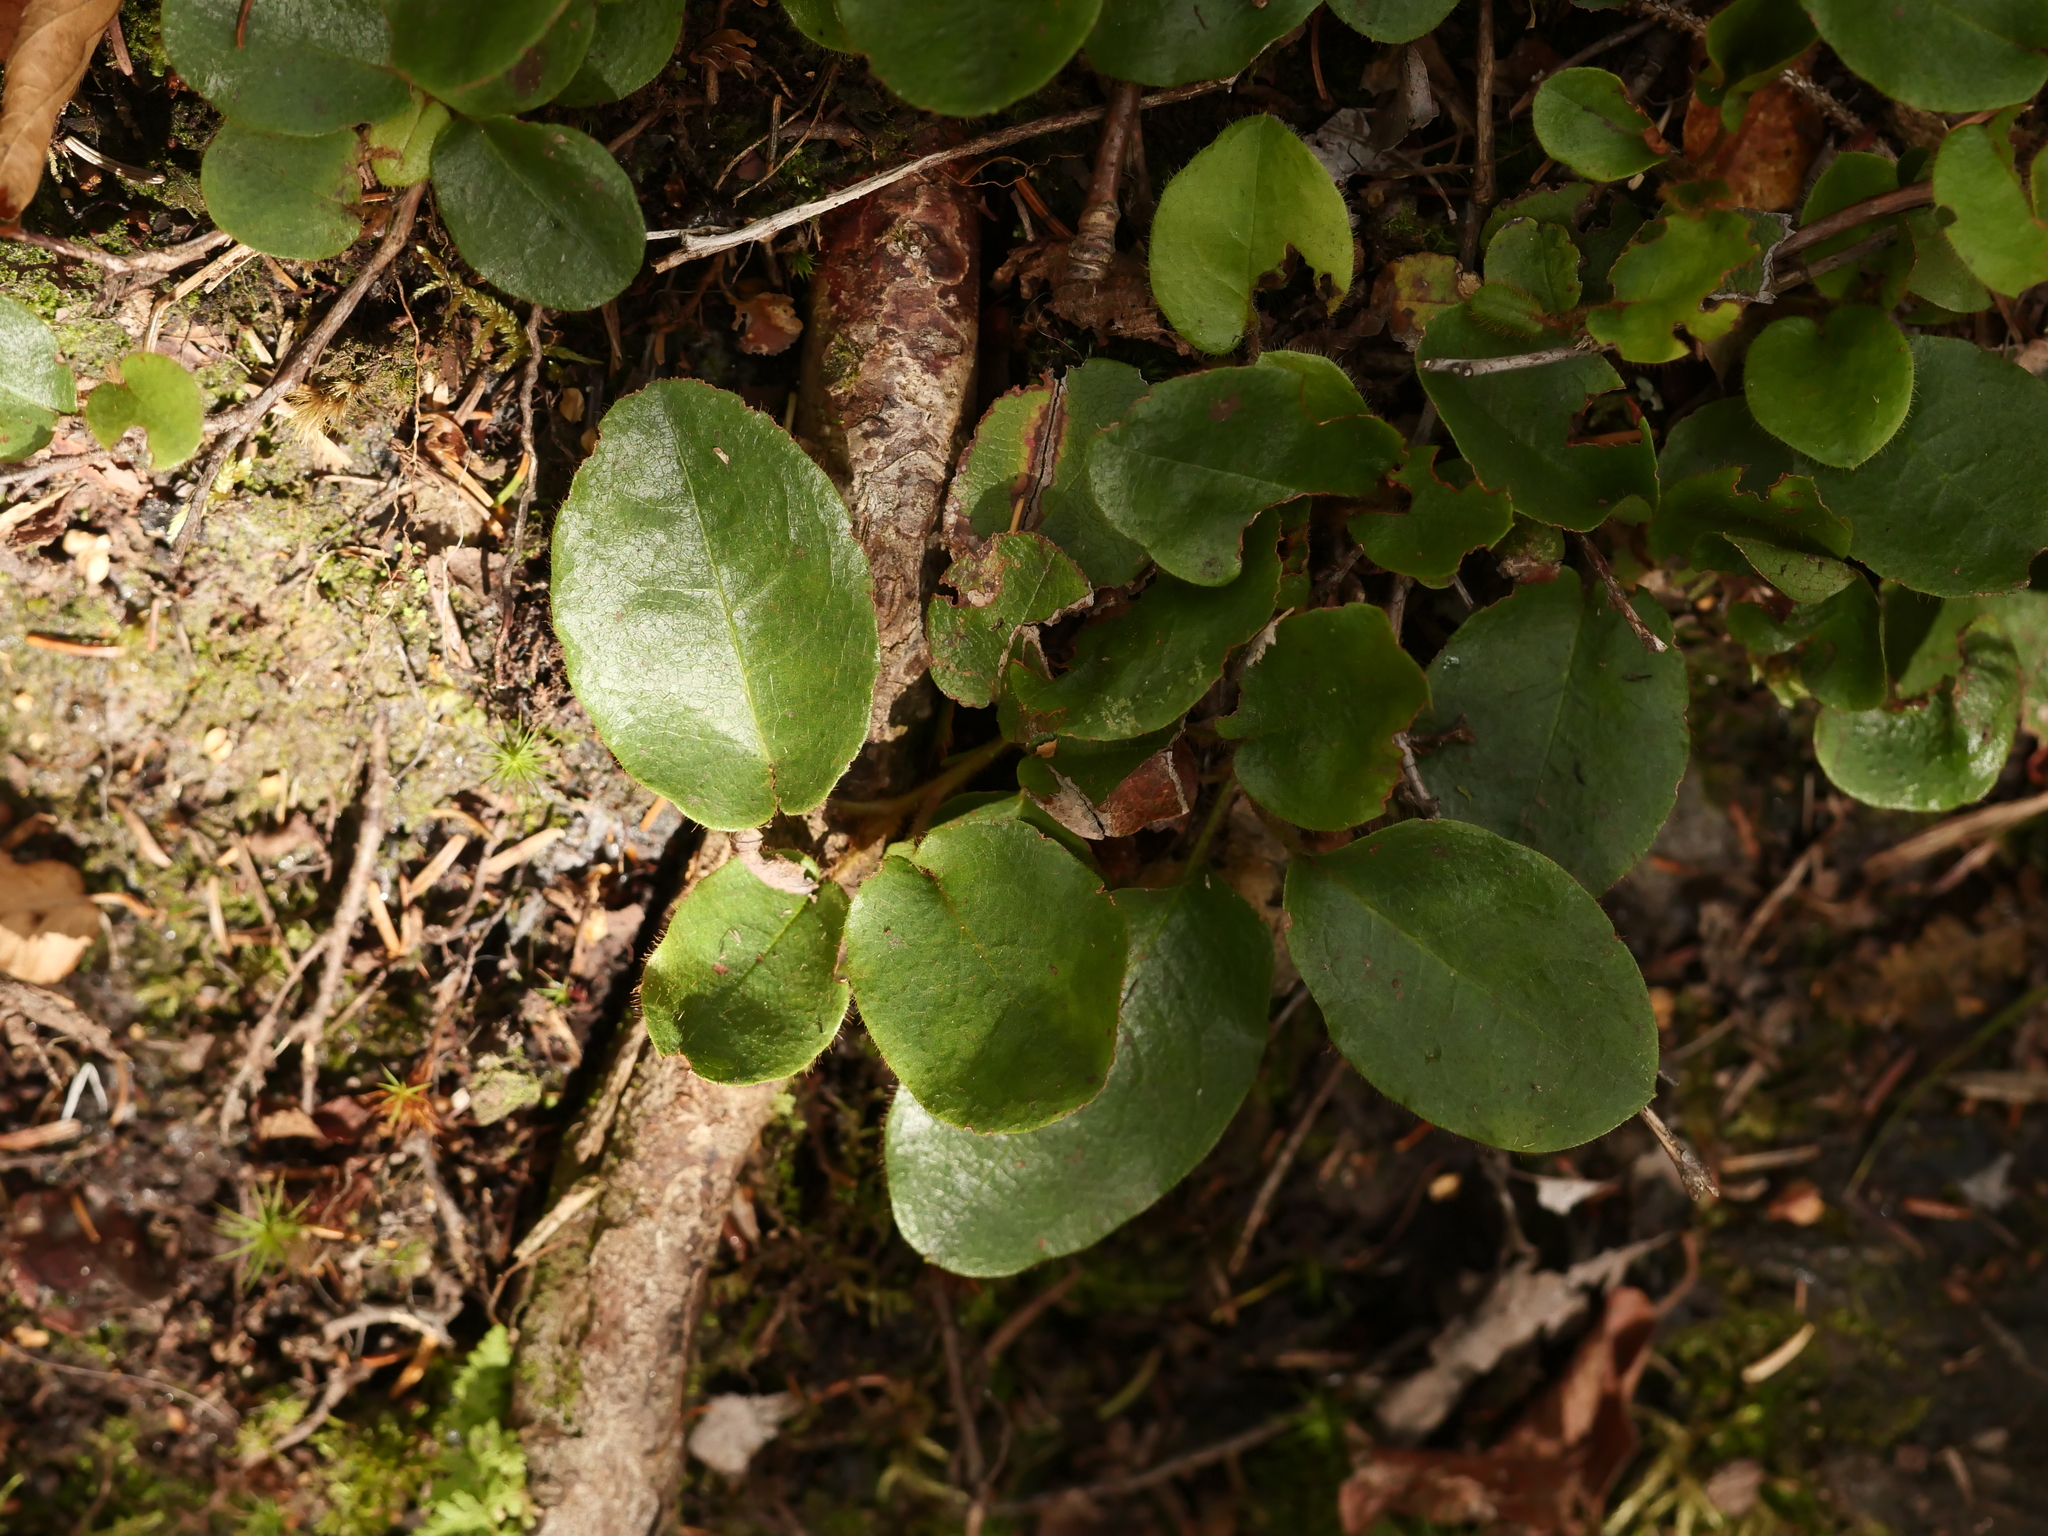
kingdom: Plantae
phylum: Tracheophyta
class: Magnoliopsida
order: Ericales
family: Ericaceae
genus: Epigaea
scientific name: Epigaea repens
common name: Gravelroot
